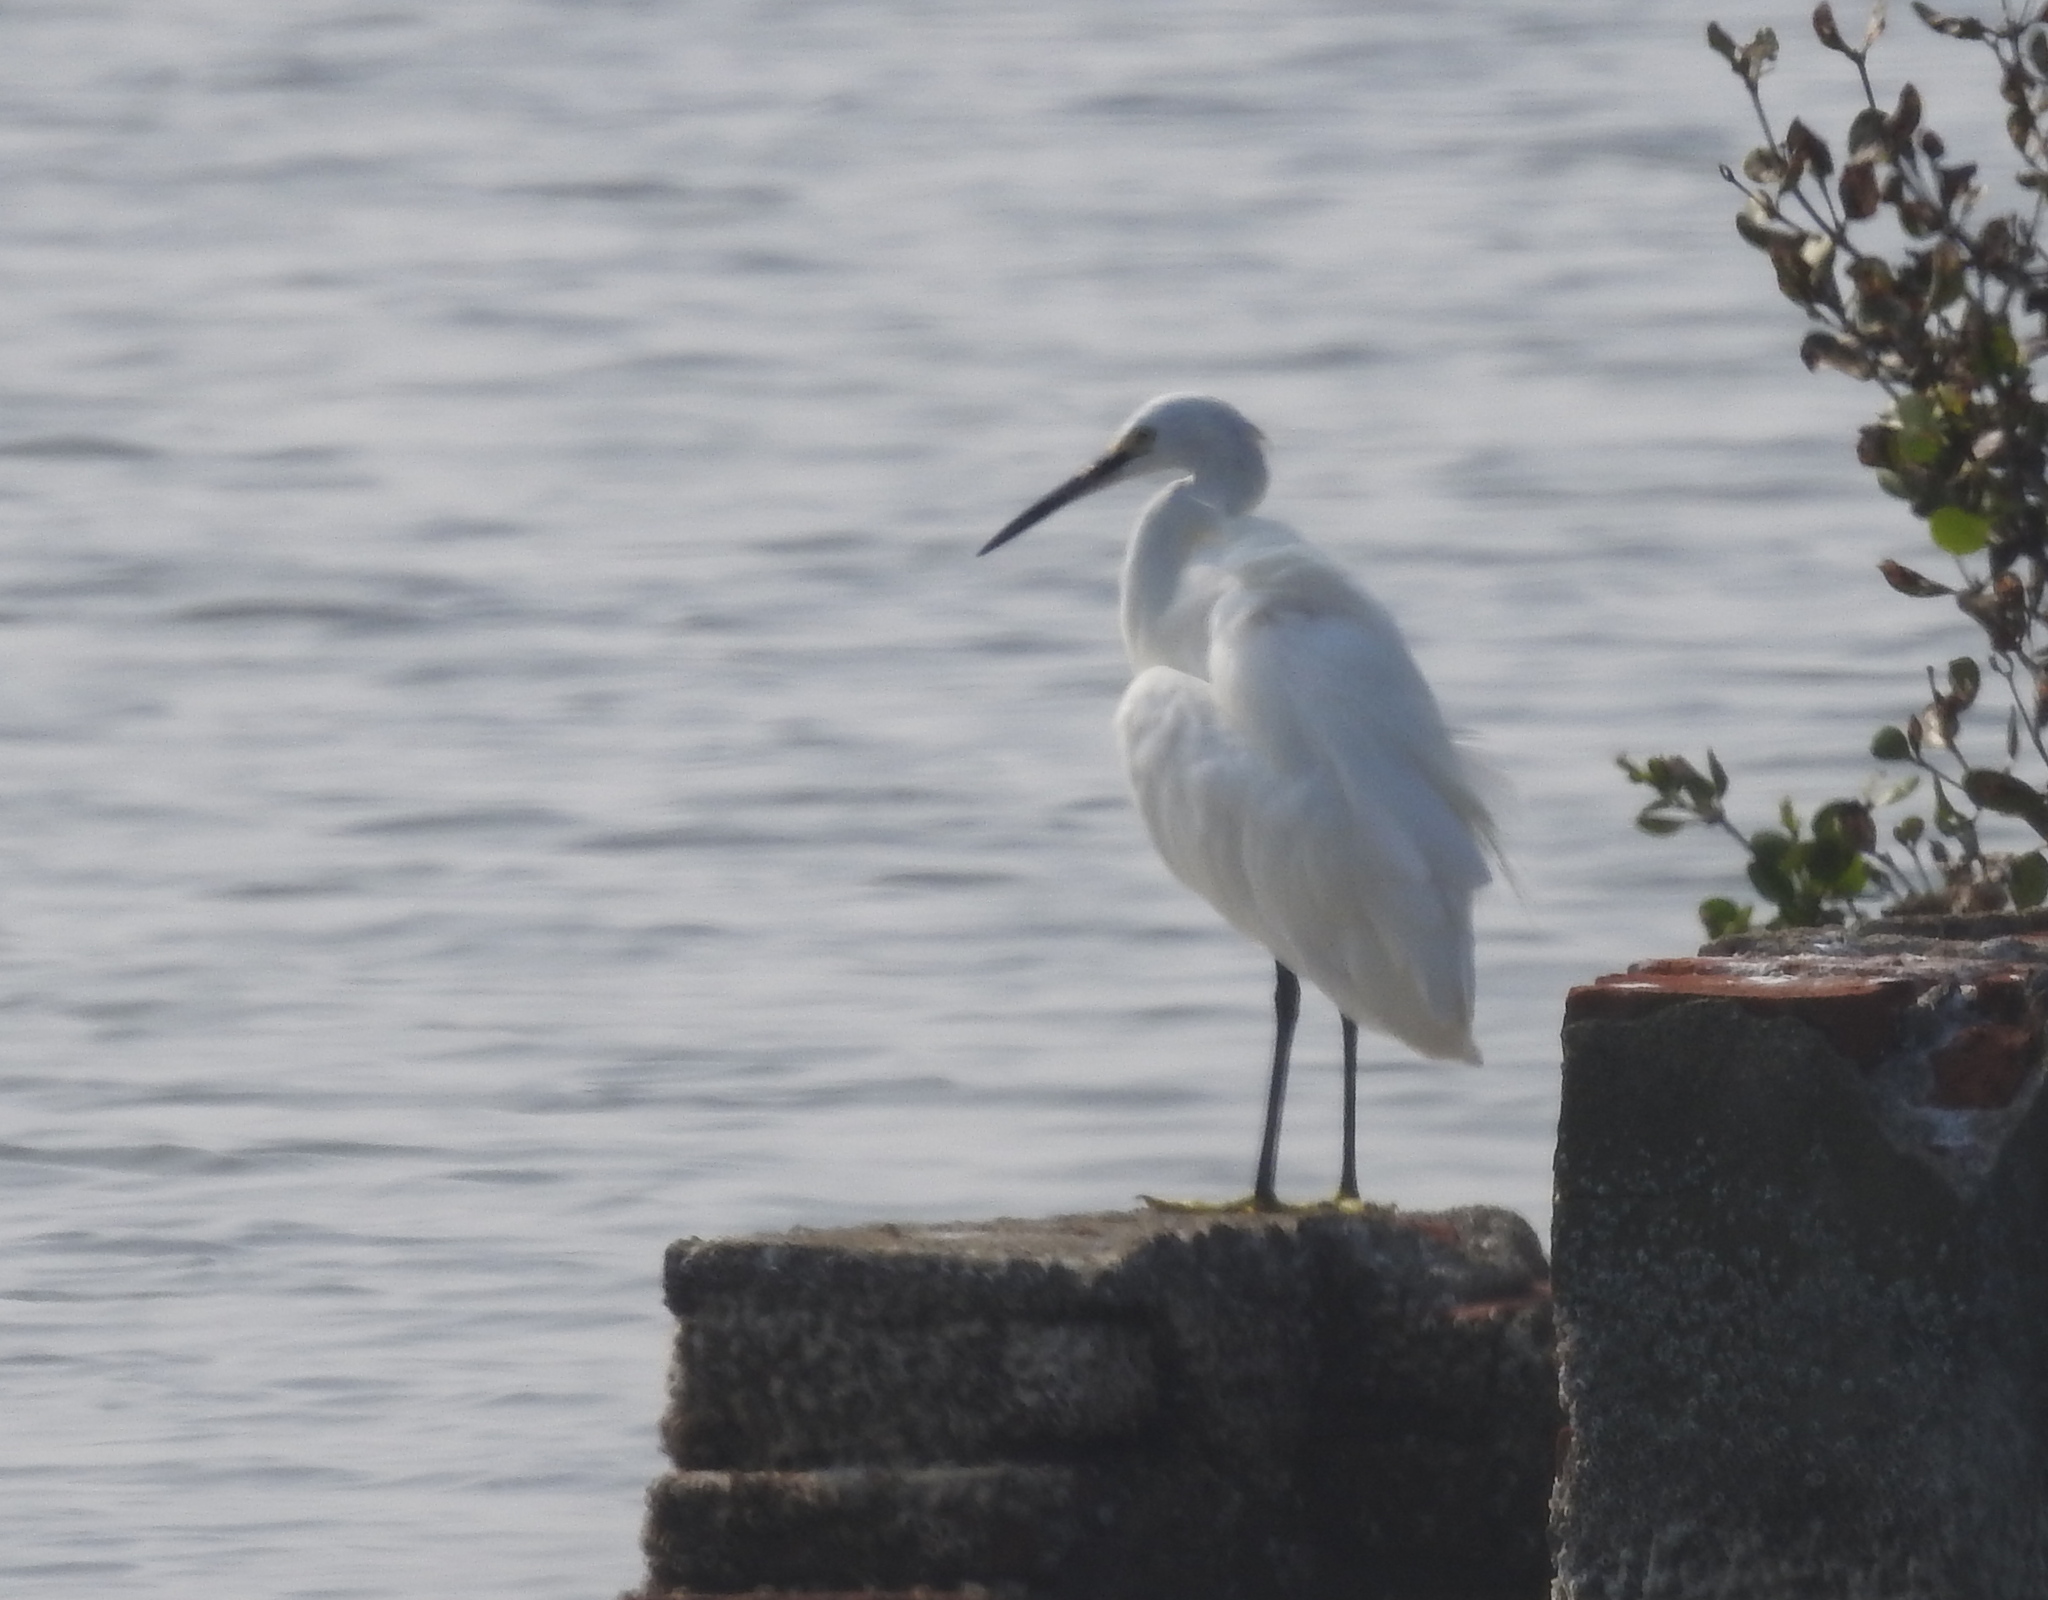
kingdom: Animalia
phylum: Chordata
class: Aves
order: Pelecaniformes
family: Ardeidae
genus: Egretta
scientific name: Egretta garzetta
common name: Little egret
